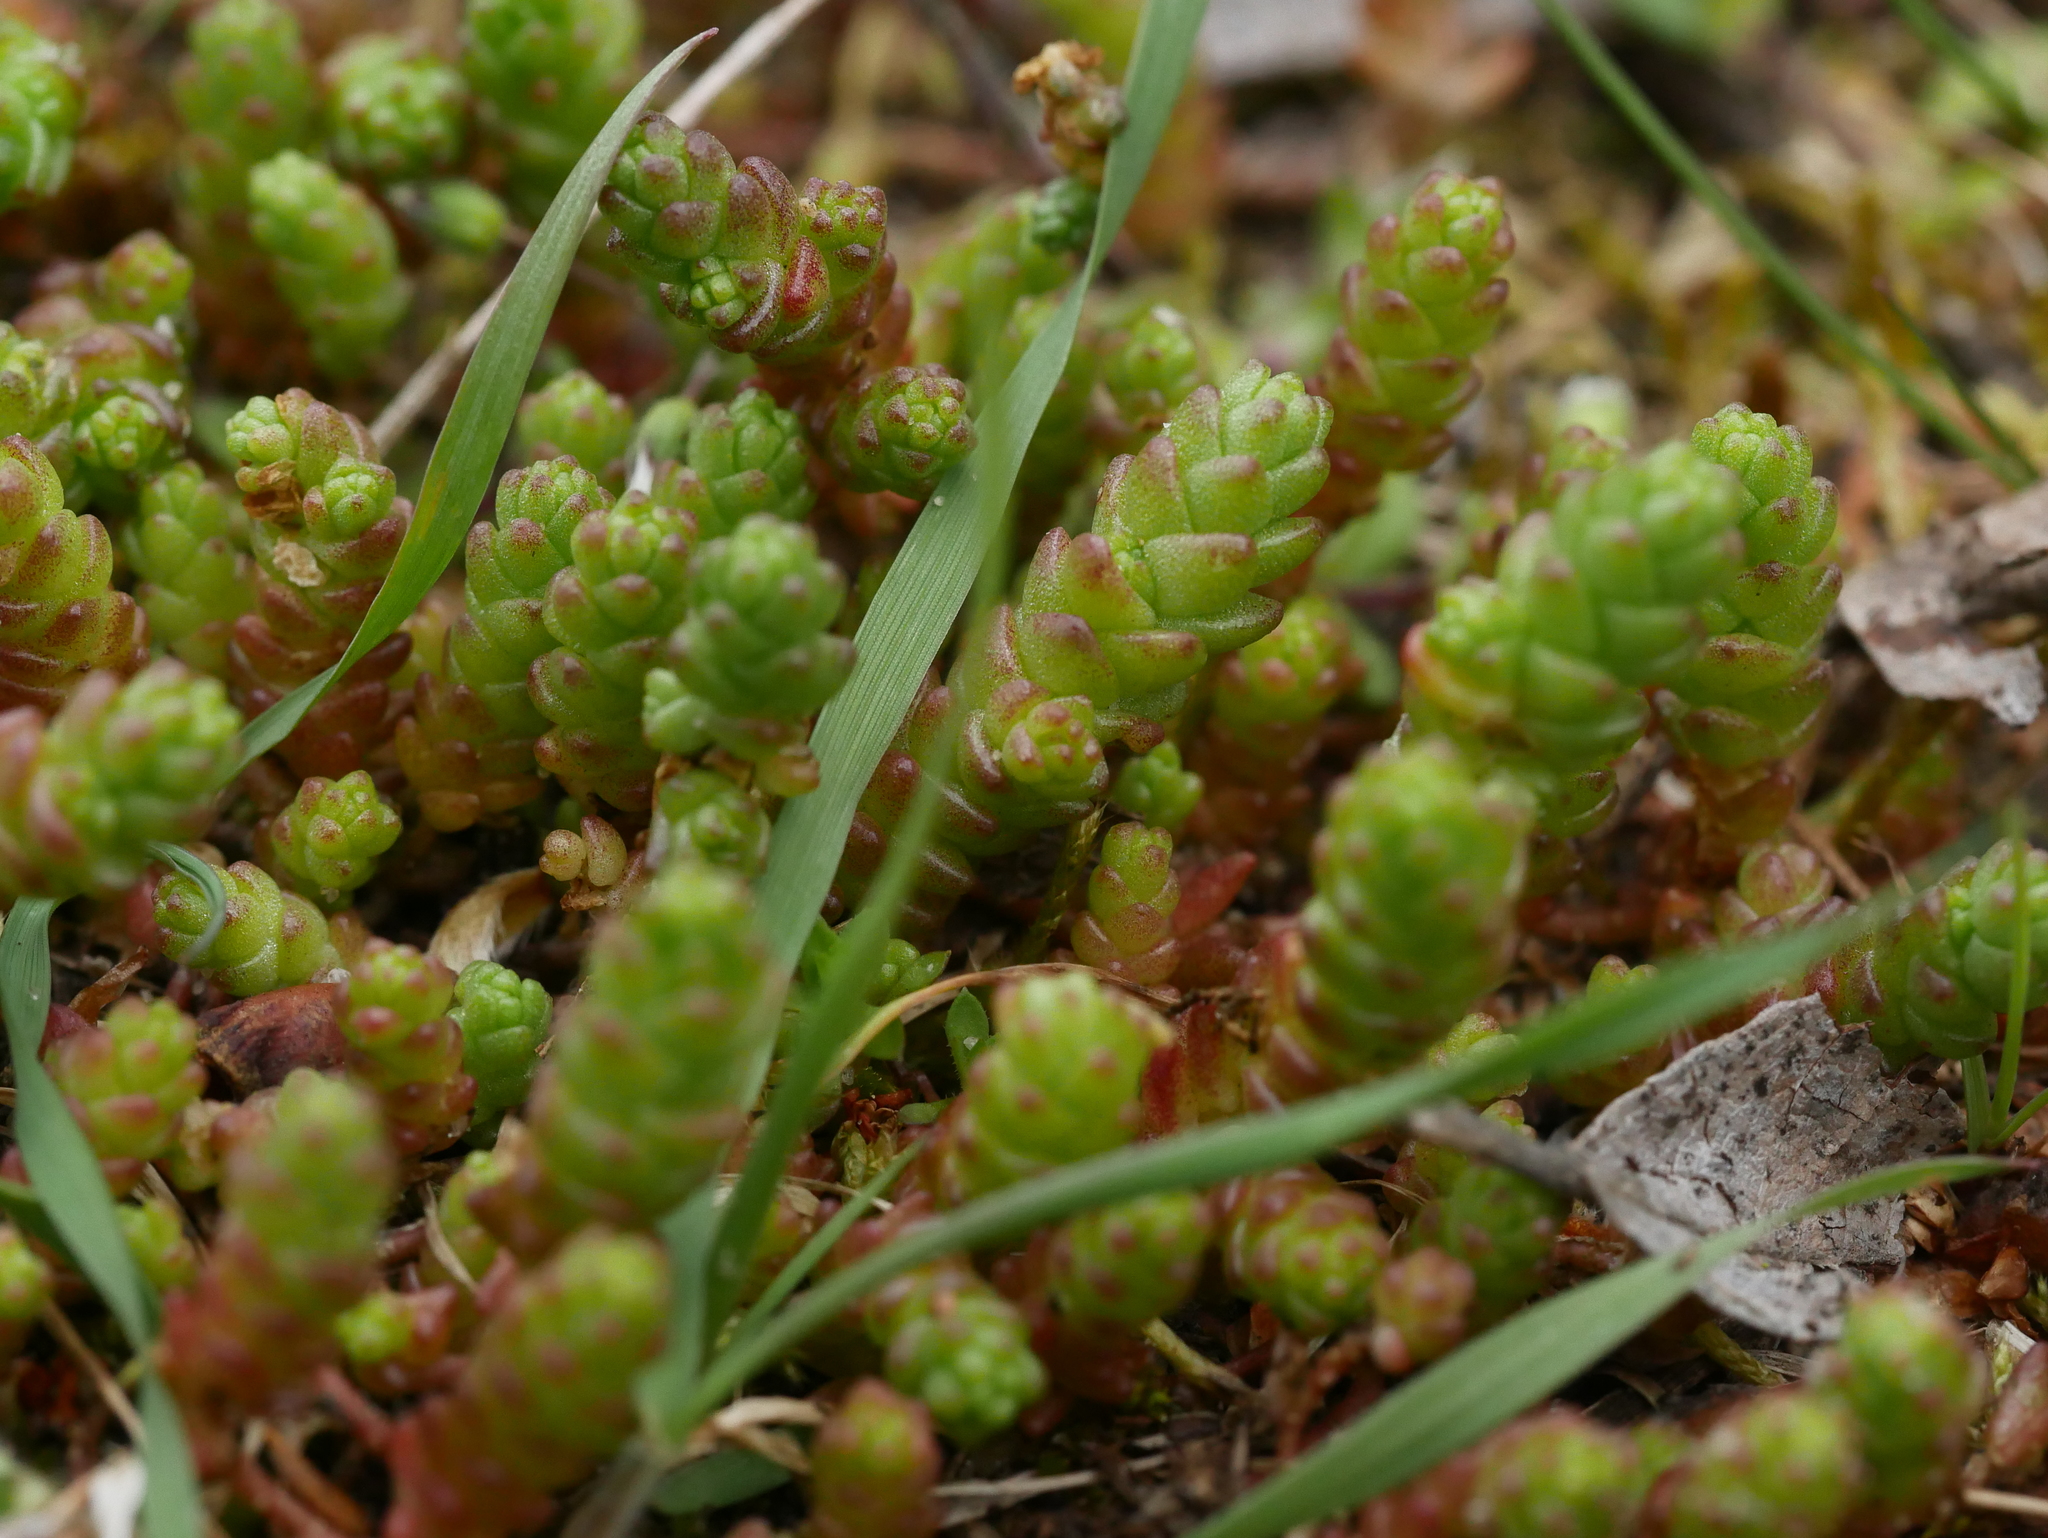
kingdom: Plantae
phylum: Tracheophyta
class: Magnoliopsida
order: Saxifragales
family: Crassulaceae
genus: Sedum
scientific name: Sedum acre
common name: Biting stonecrop
